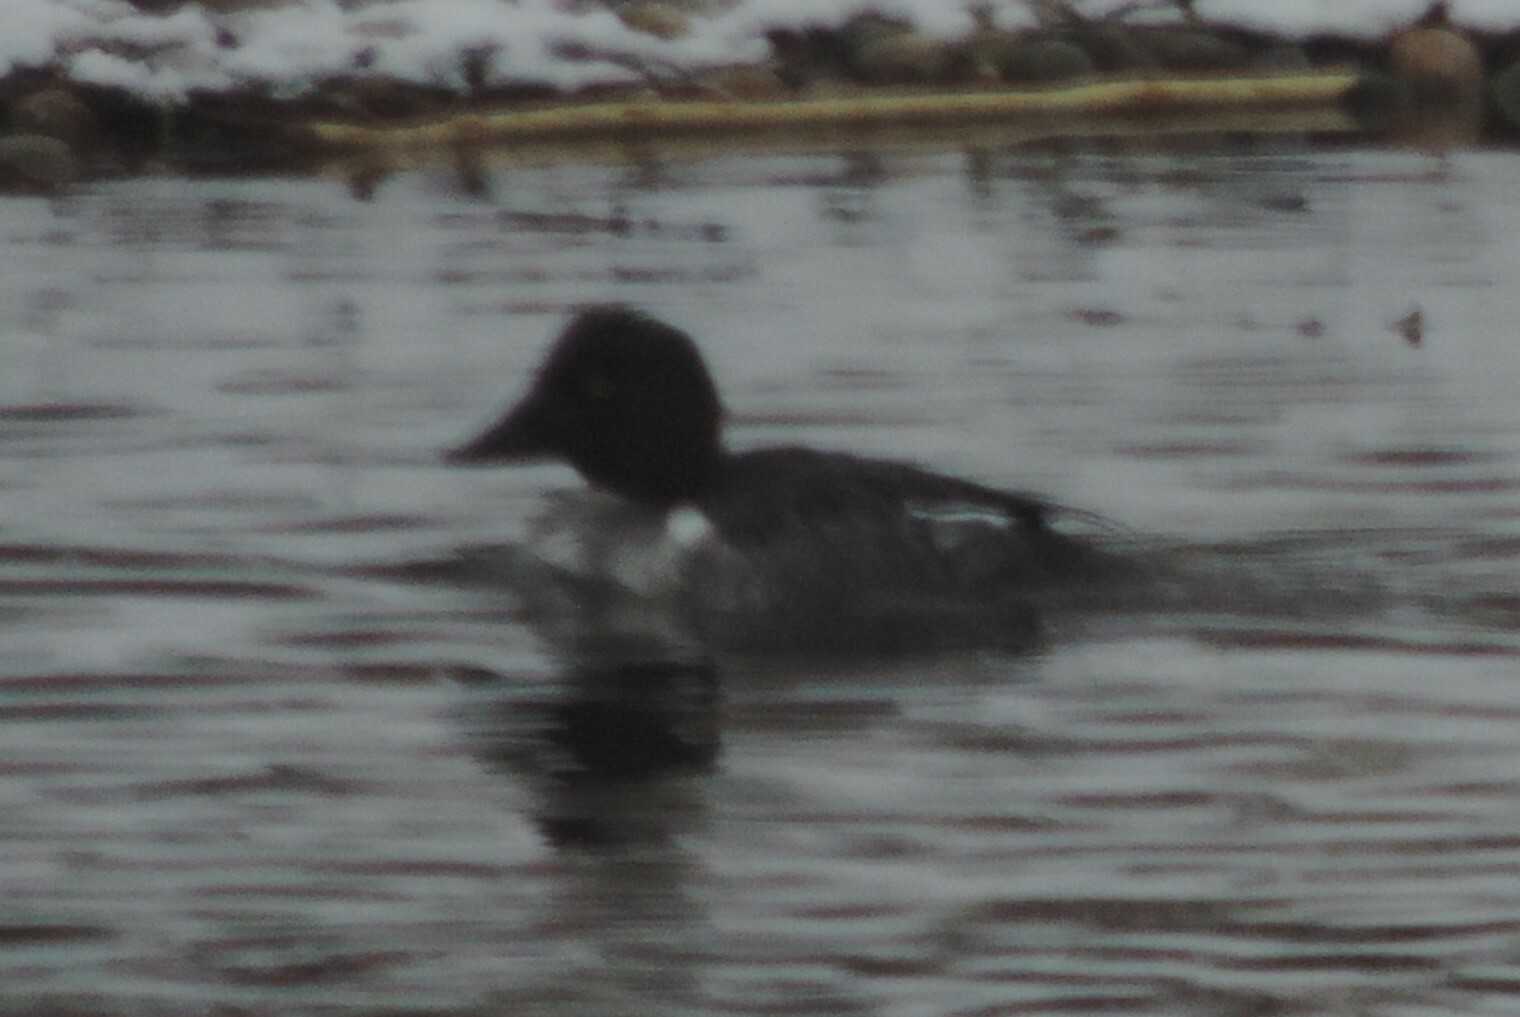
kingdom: Animalia
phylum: Chordata
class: Aves
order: Anseriformes
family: Anatidae
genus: Bucephala
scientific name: Bucephala clangula
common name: Common goldeneye
